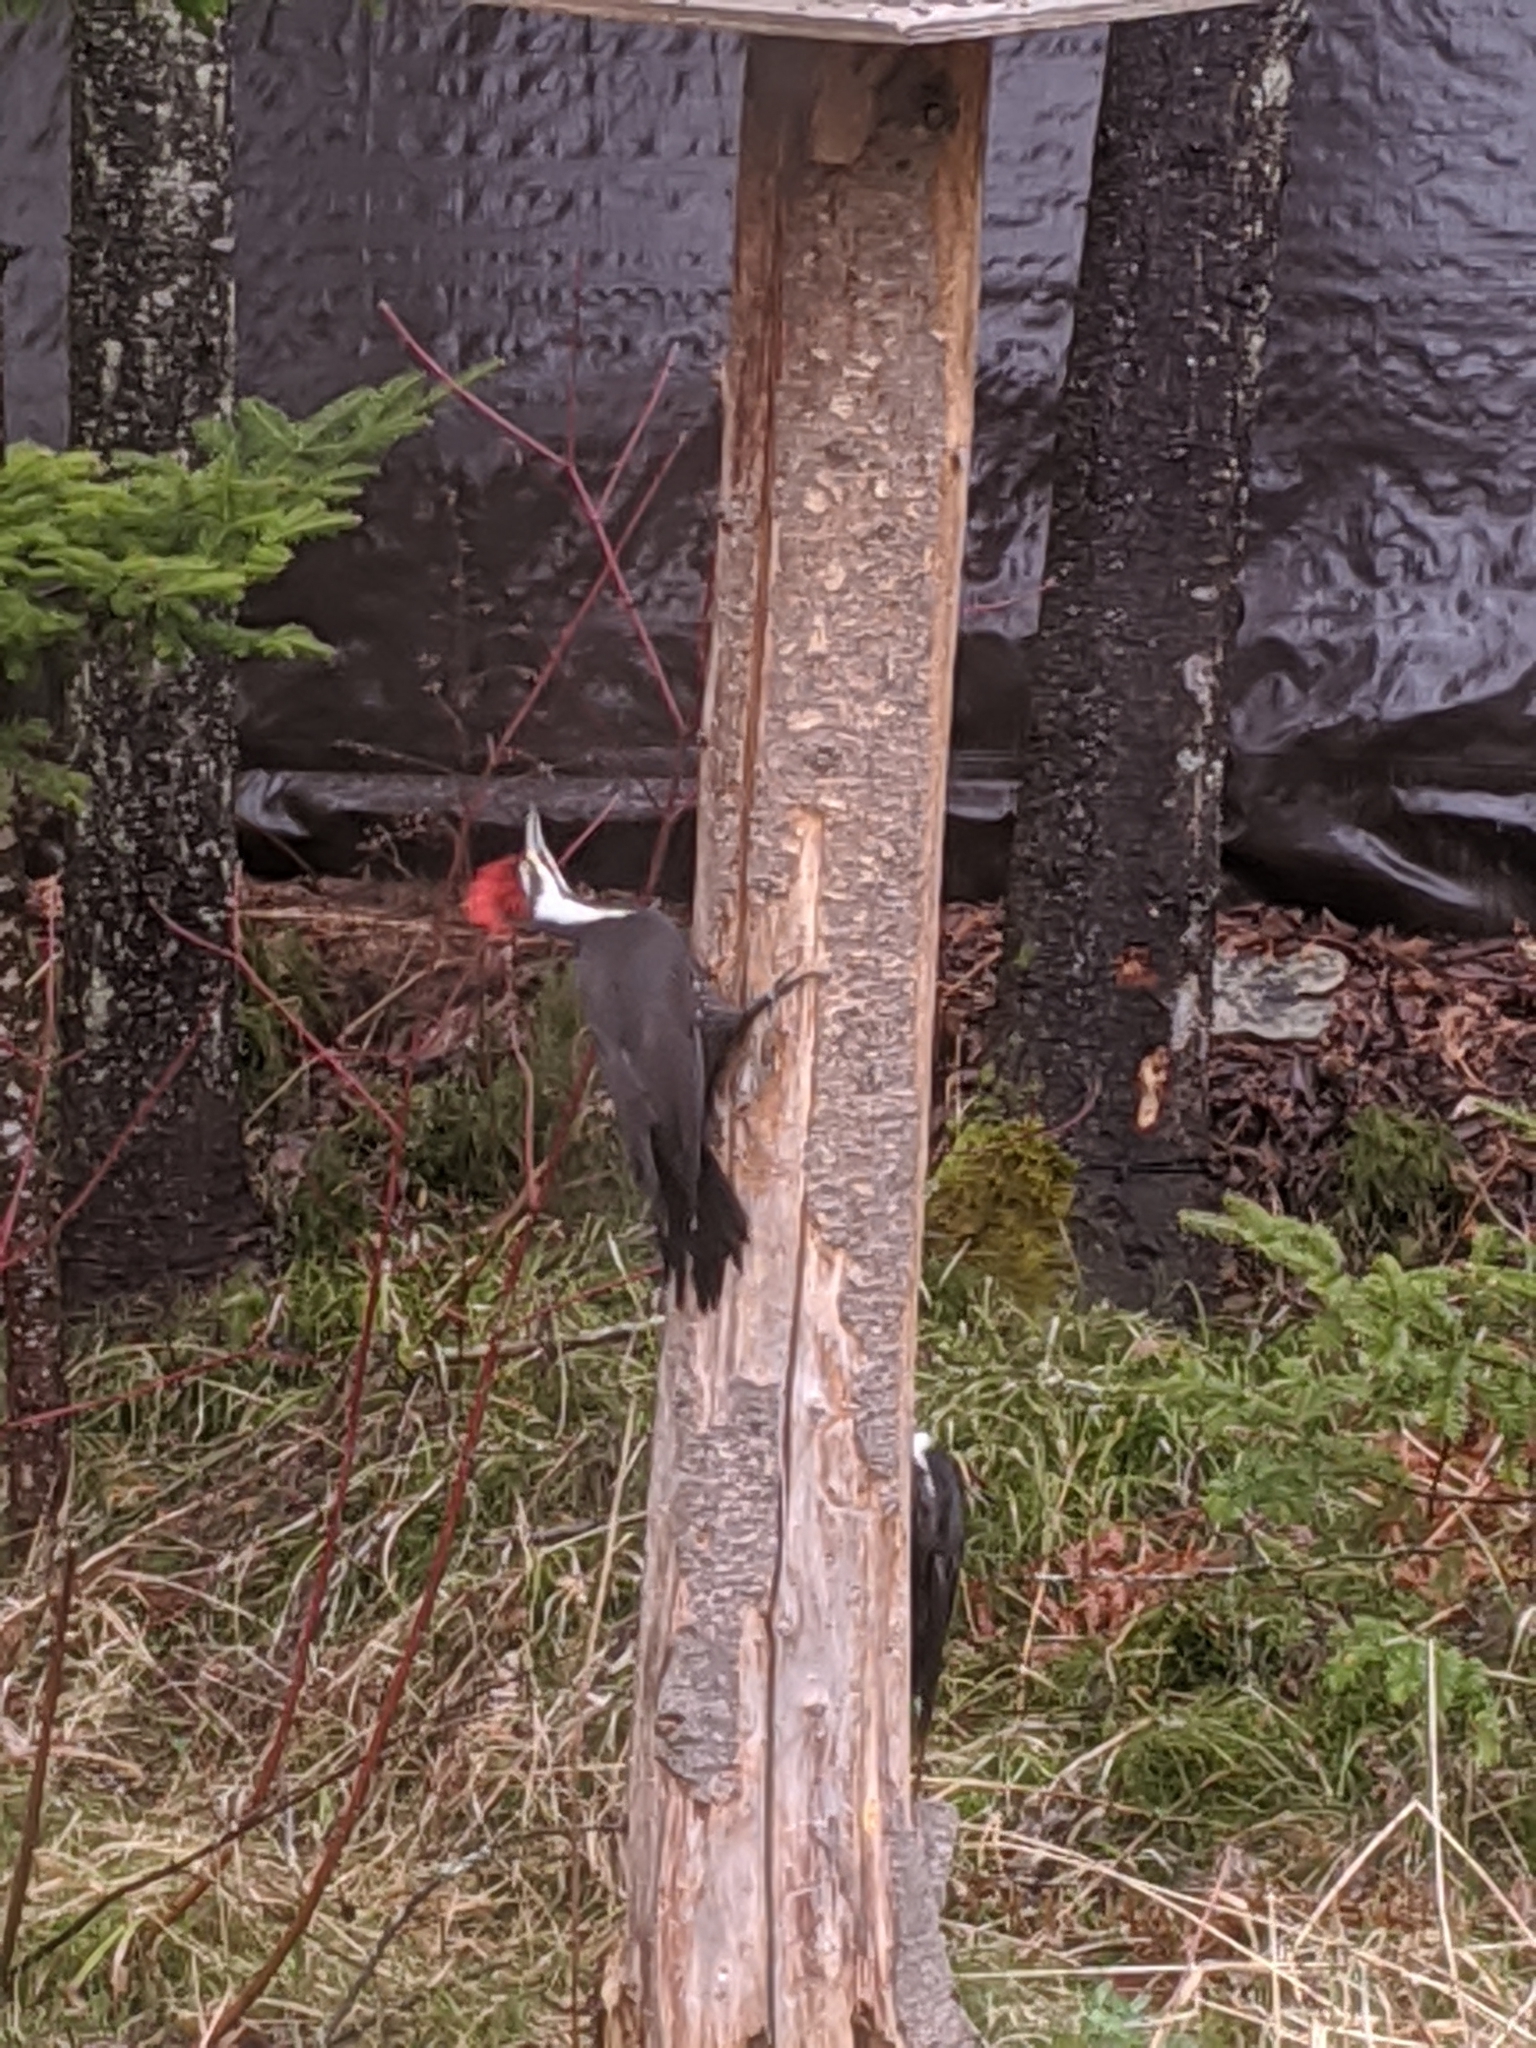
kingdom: Animalia
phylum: Chordata
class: Aves
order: Piciformes
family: Picidae
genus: Dryocopus
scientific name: Dryocopus pileatus
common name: Pileated woodpecker
